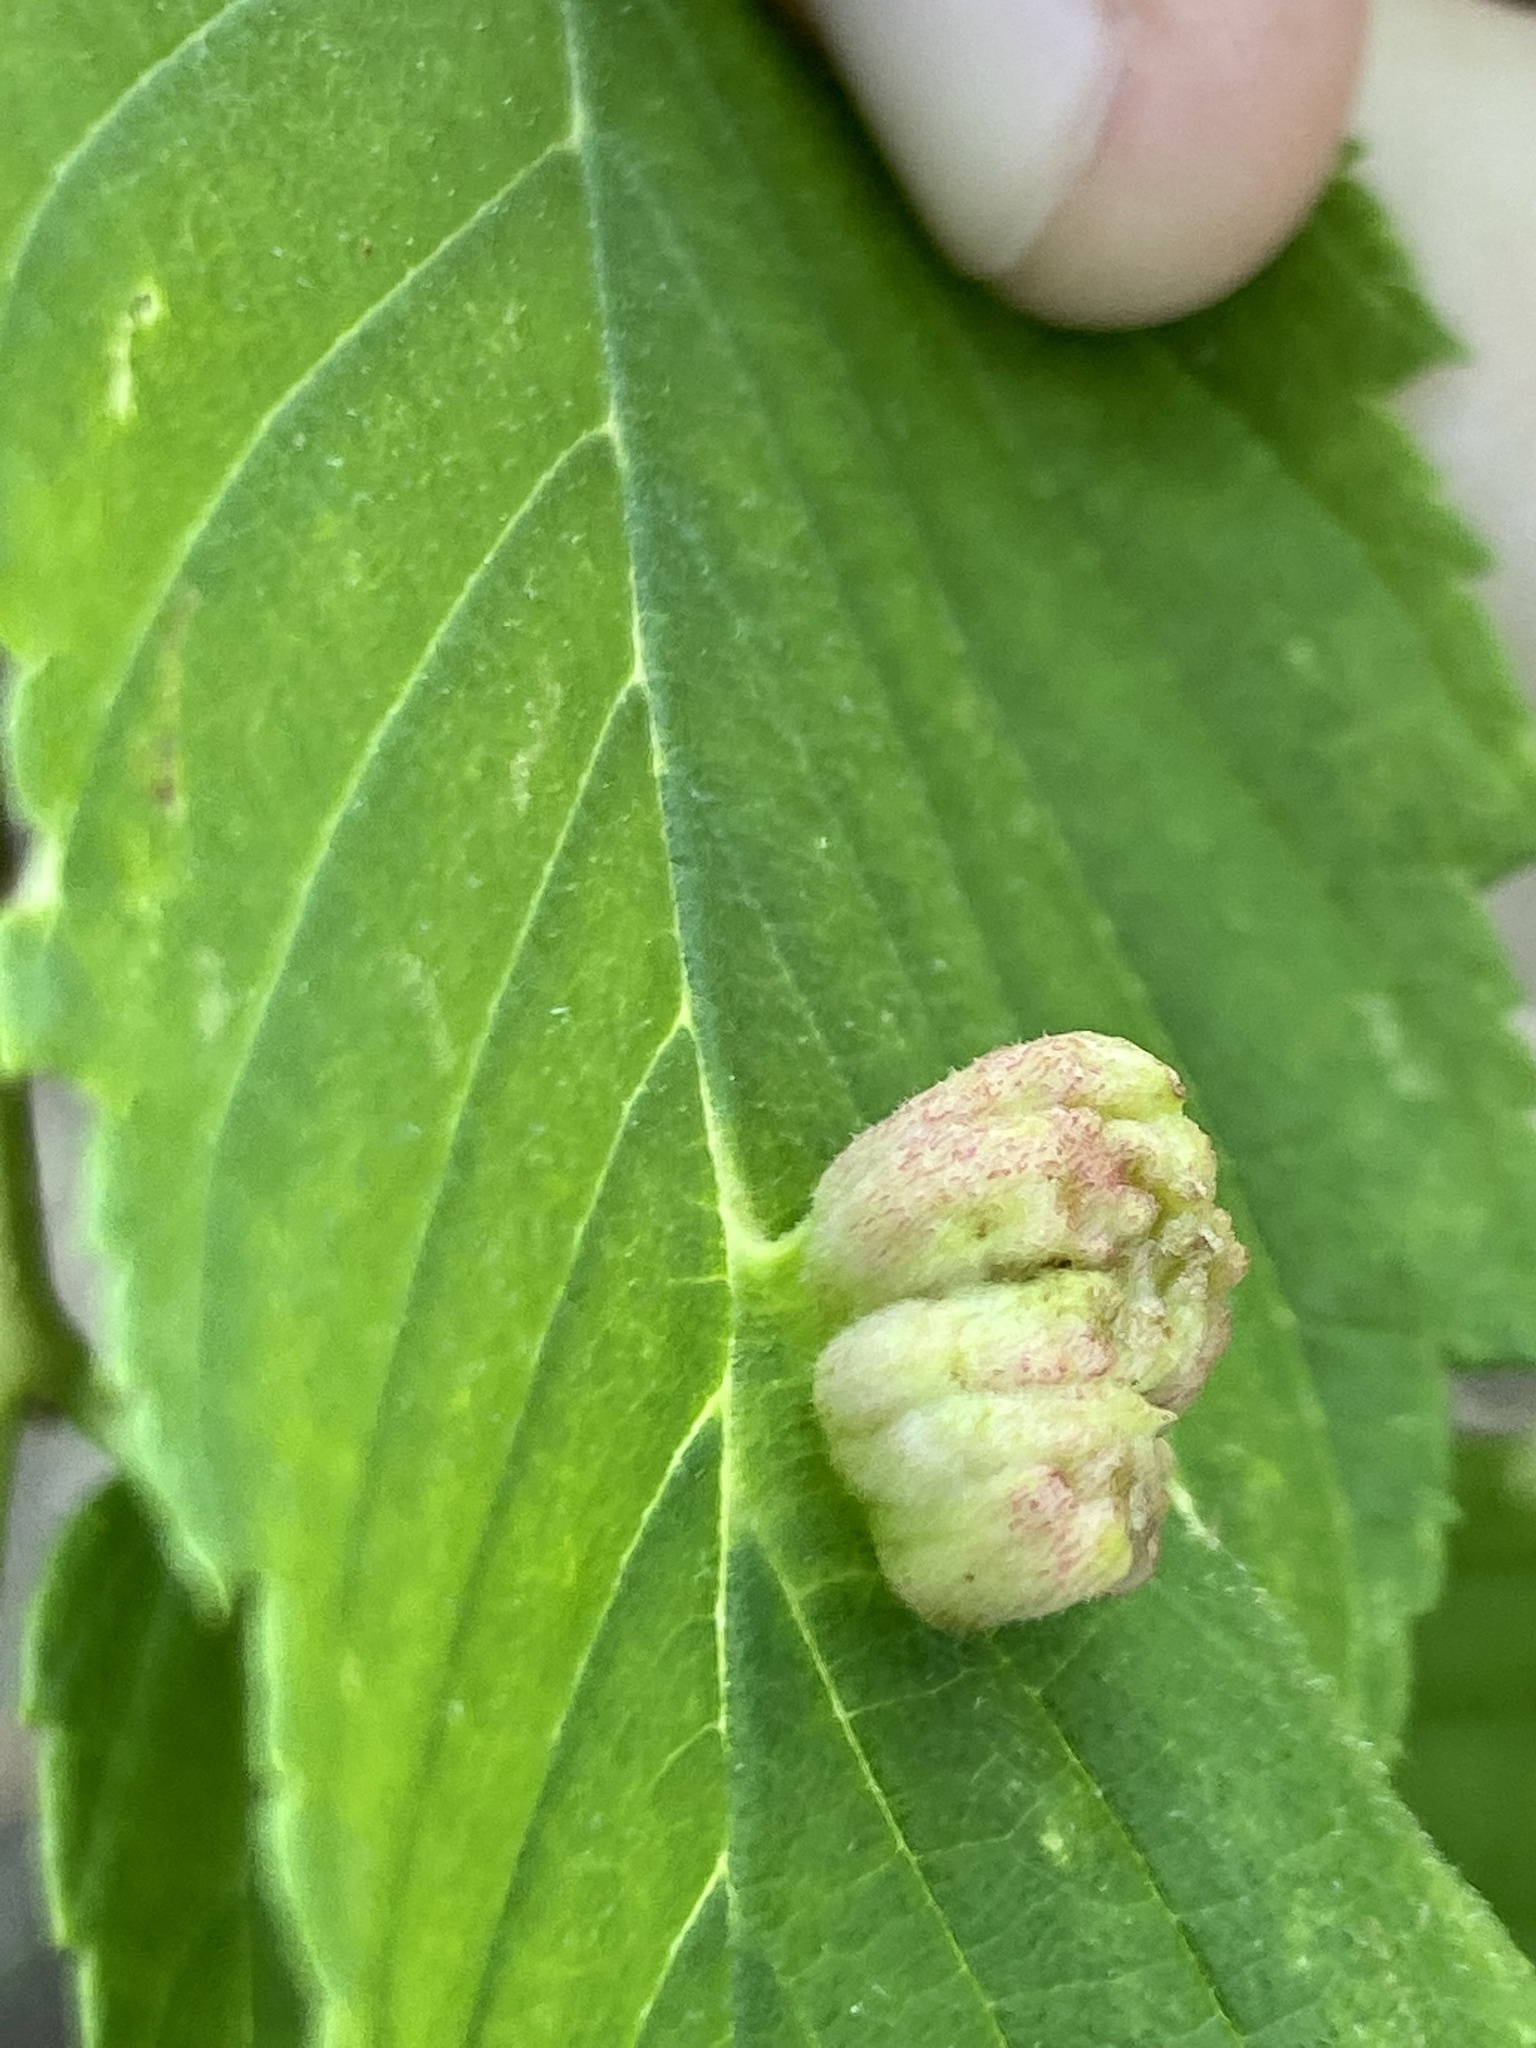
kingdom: Animalia
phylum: Arthropoda
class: Insecta
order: Hemiptera
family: Aphididae
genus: Colopha
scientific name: Colopha ulmicola
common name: Elm cockscombgall aphid
